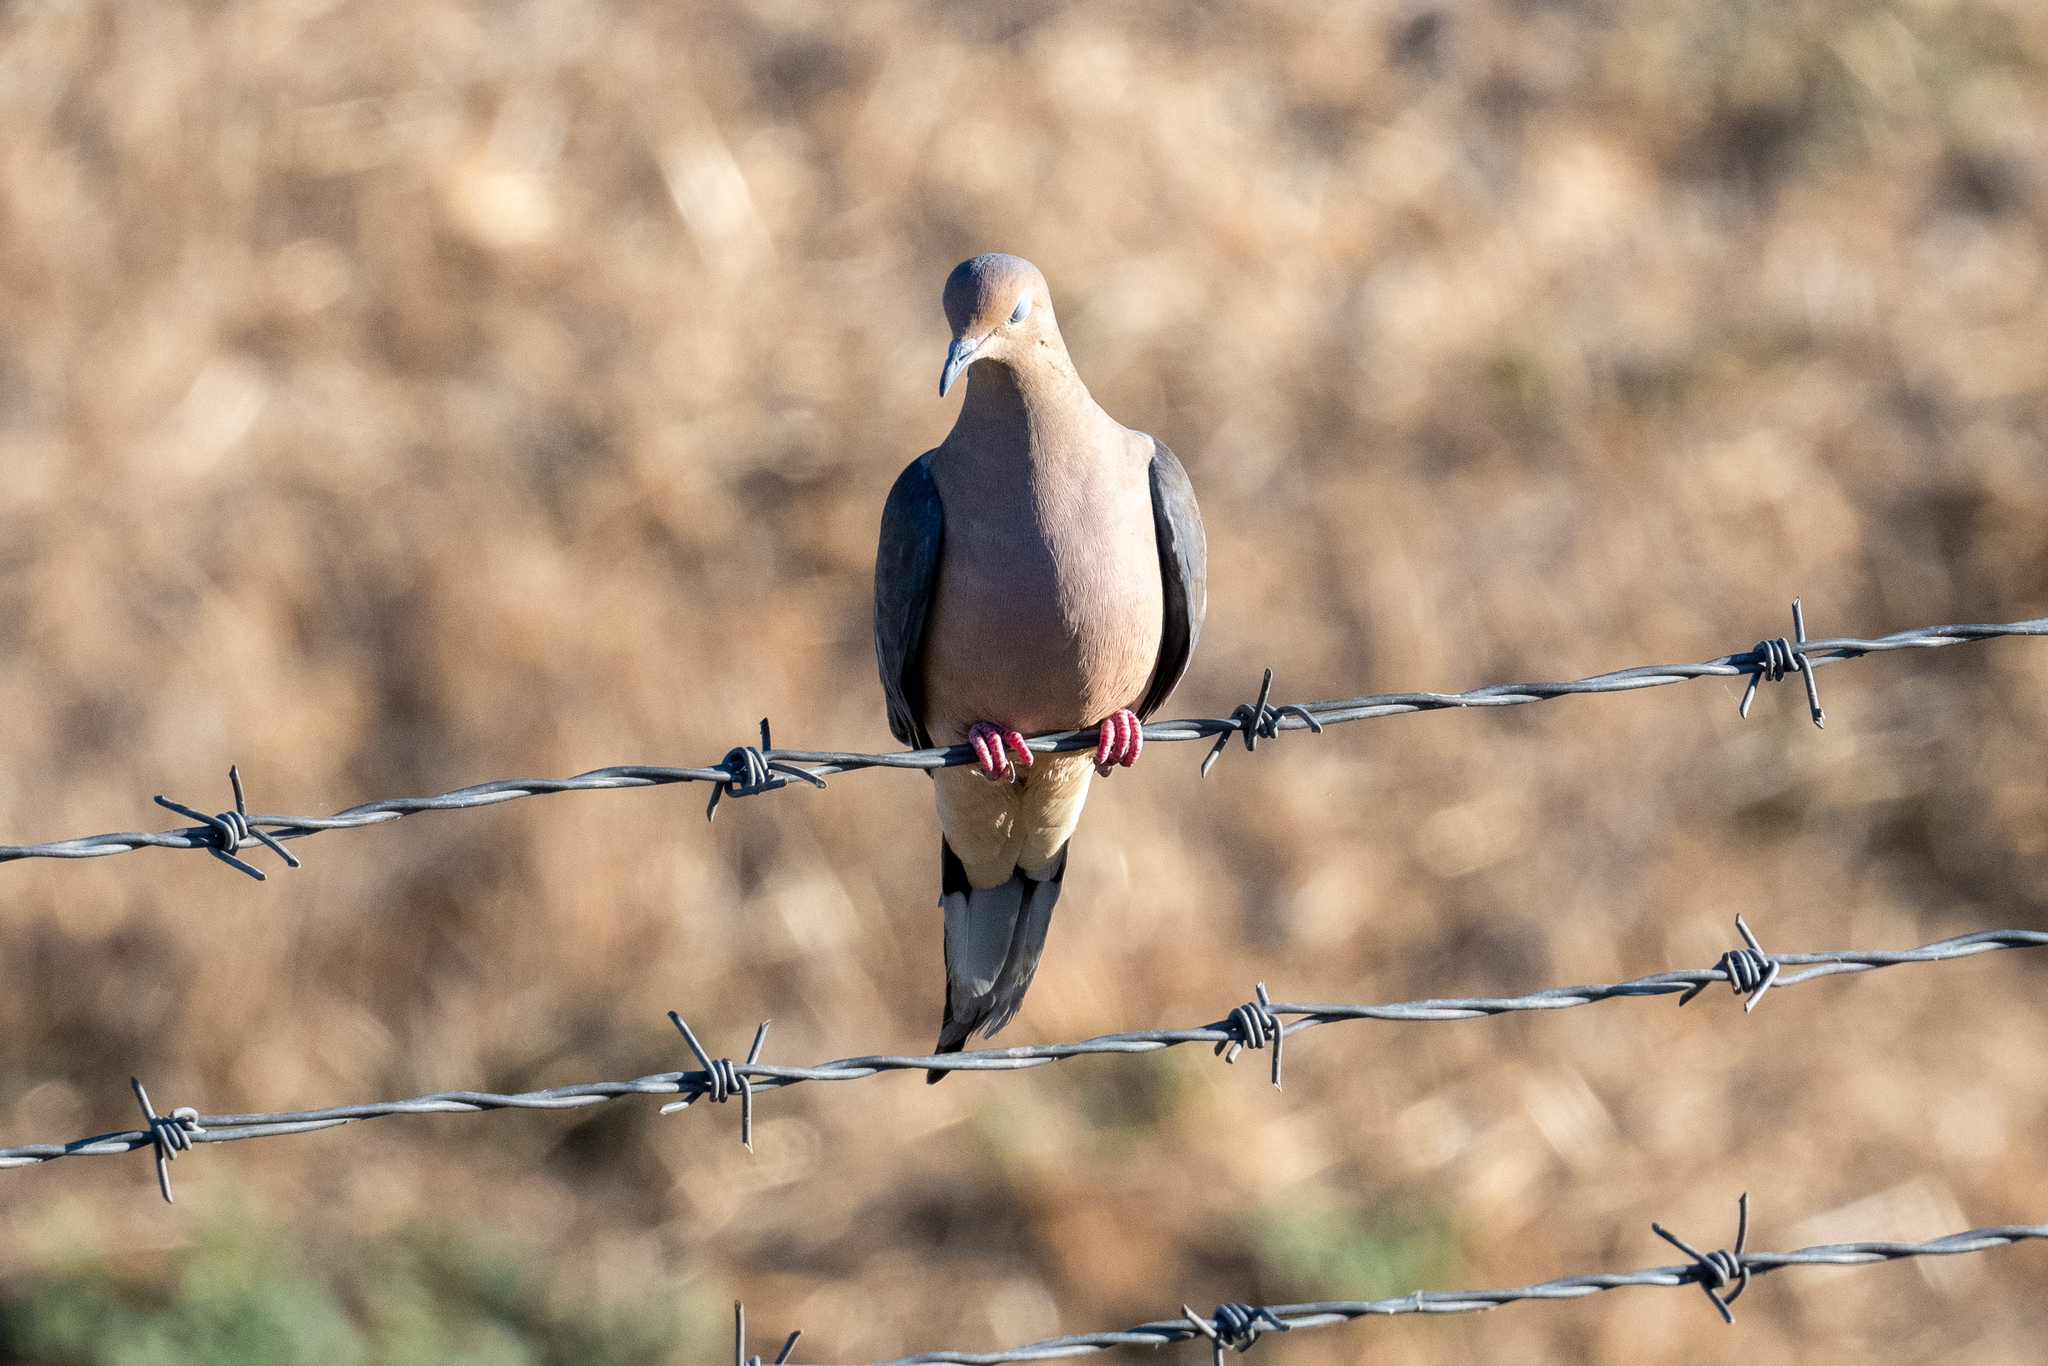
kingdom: Animalia
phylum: Chordata
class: Aves
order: Columbiformes
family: Columbidae
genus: Zenaida
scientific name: Zenaida macroura
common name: Mourning dove
